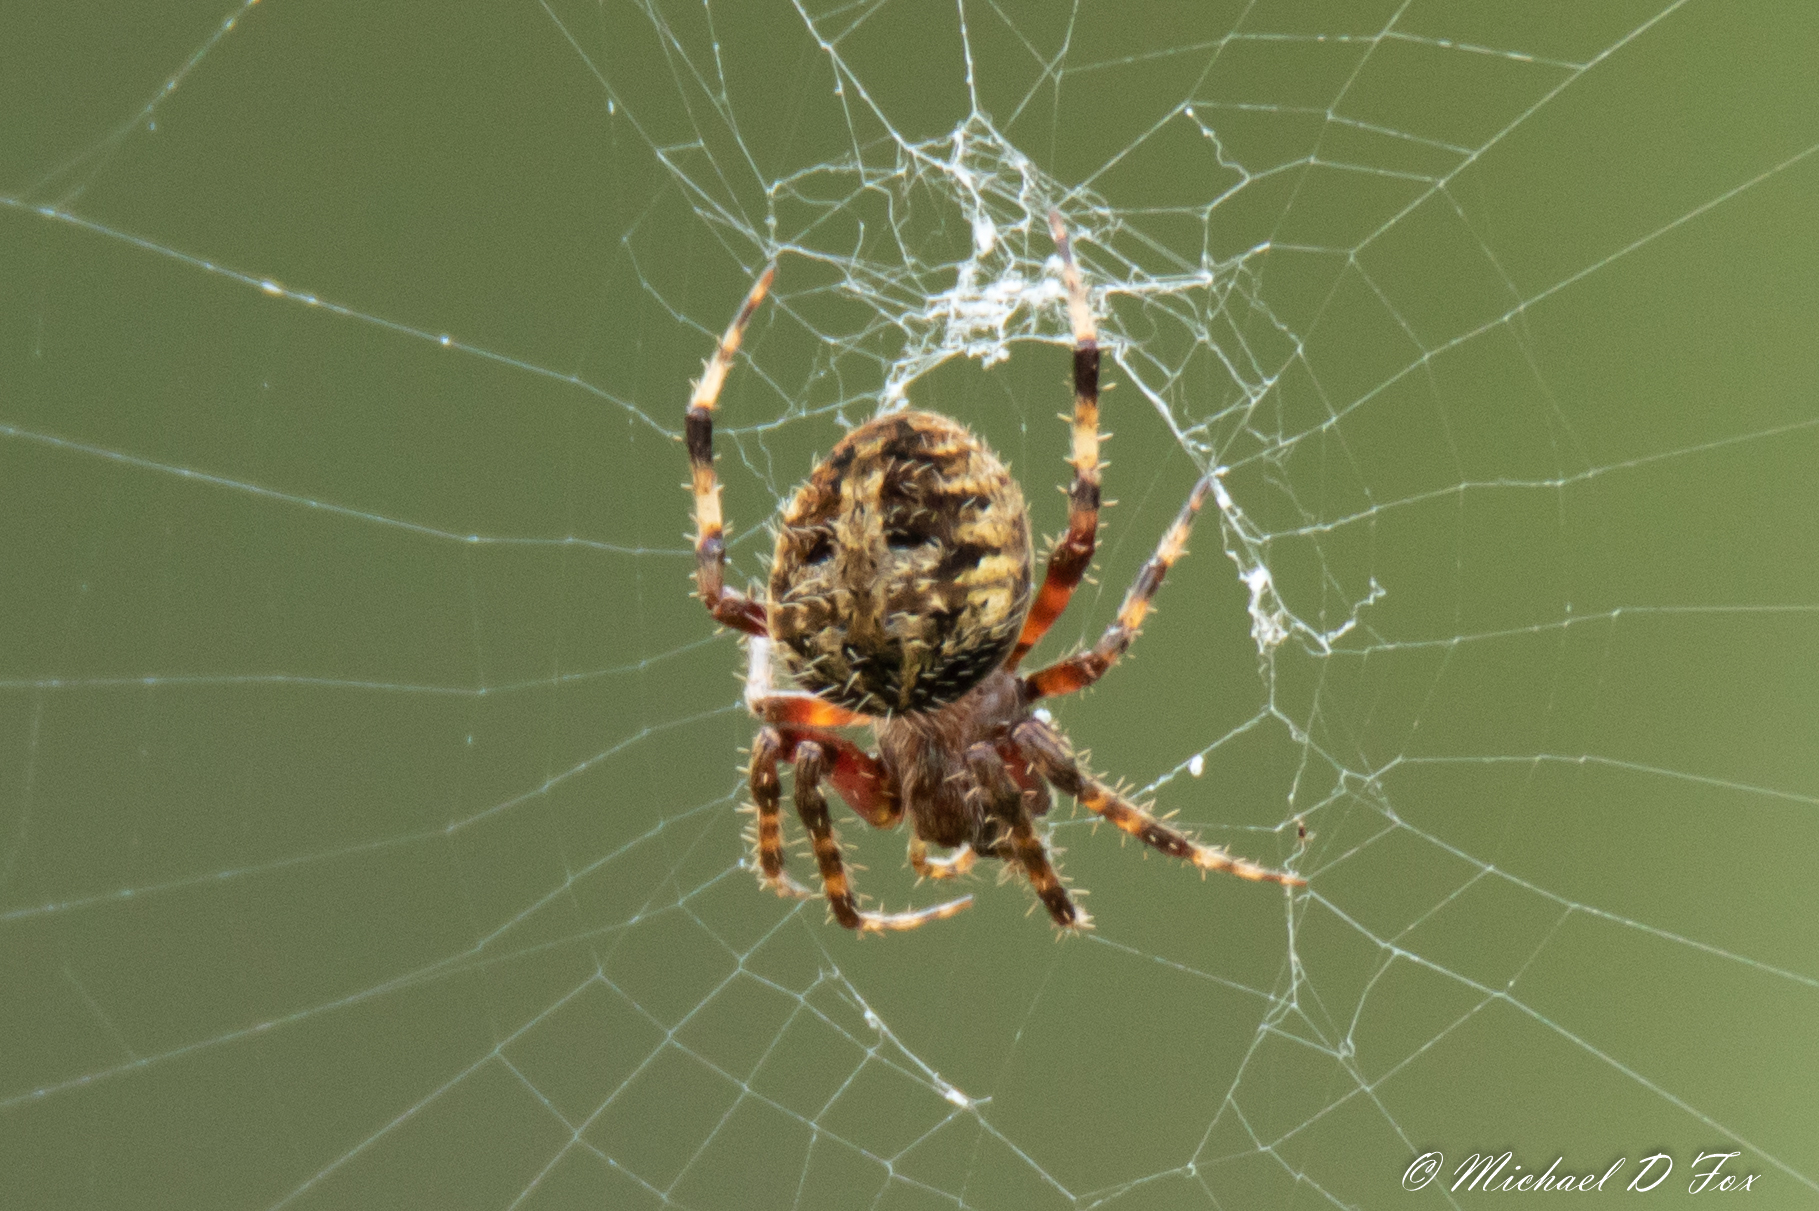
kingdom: Animalia
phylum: Arthropoda
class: Arachnida
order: Araneae
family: Araneidae
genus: Neoscona
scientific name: Neoscona crucifera
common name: Spotted orbweaver
